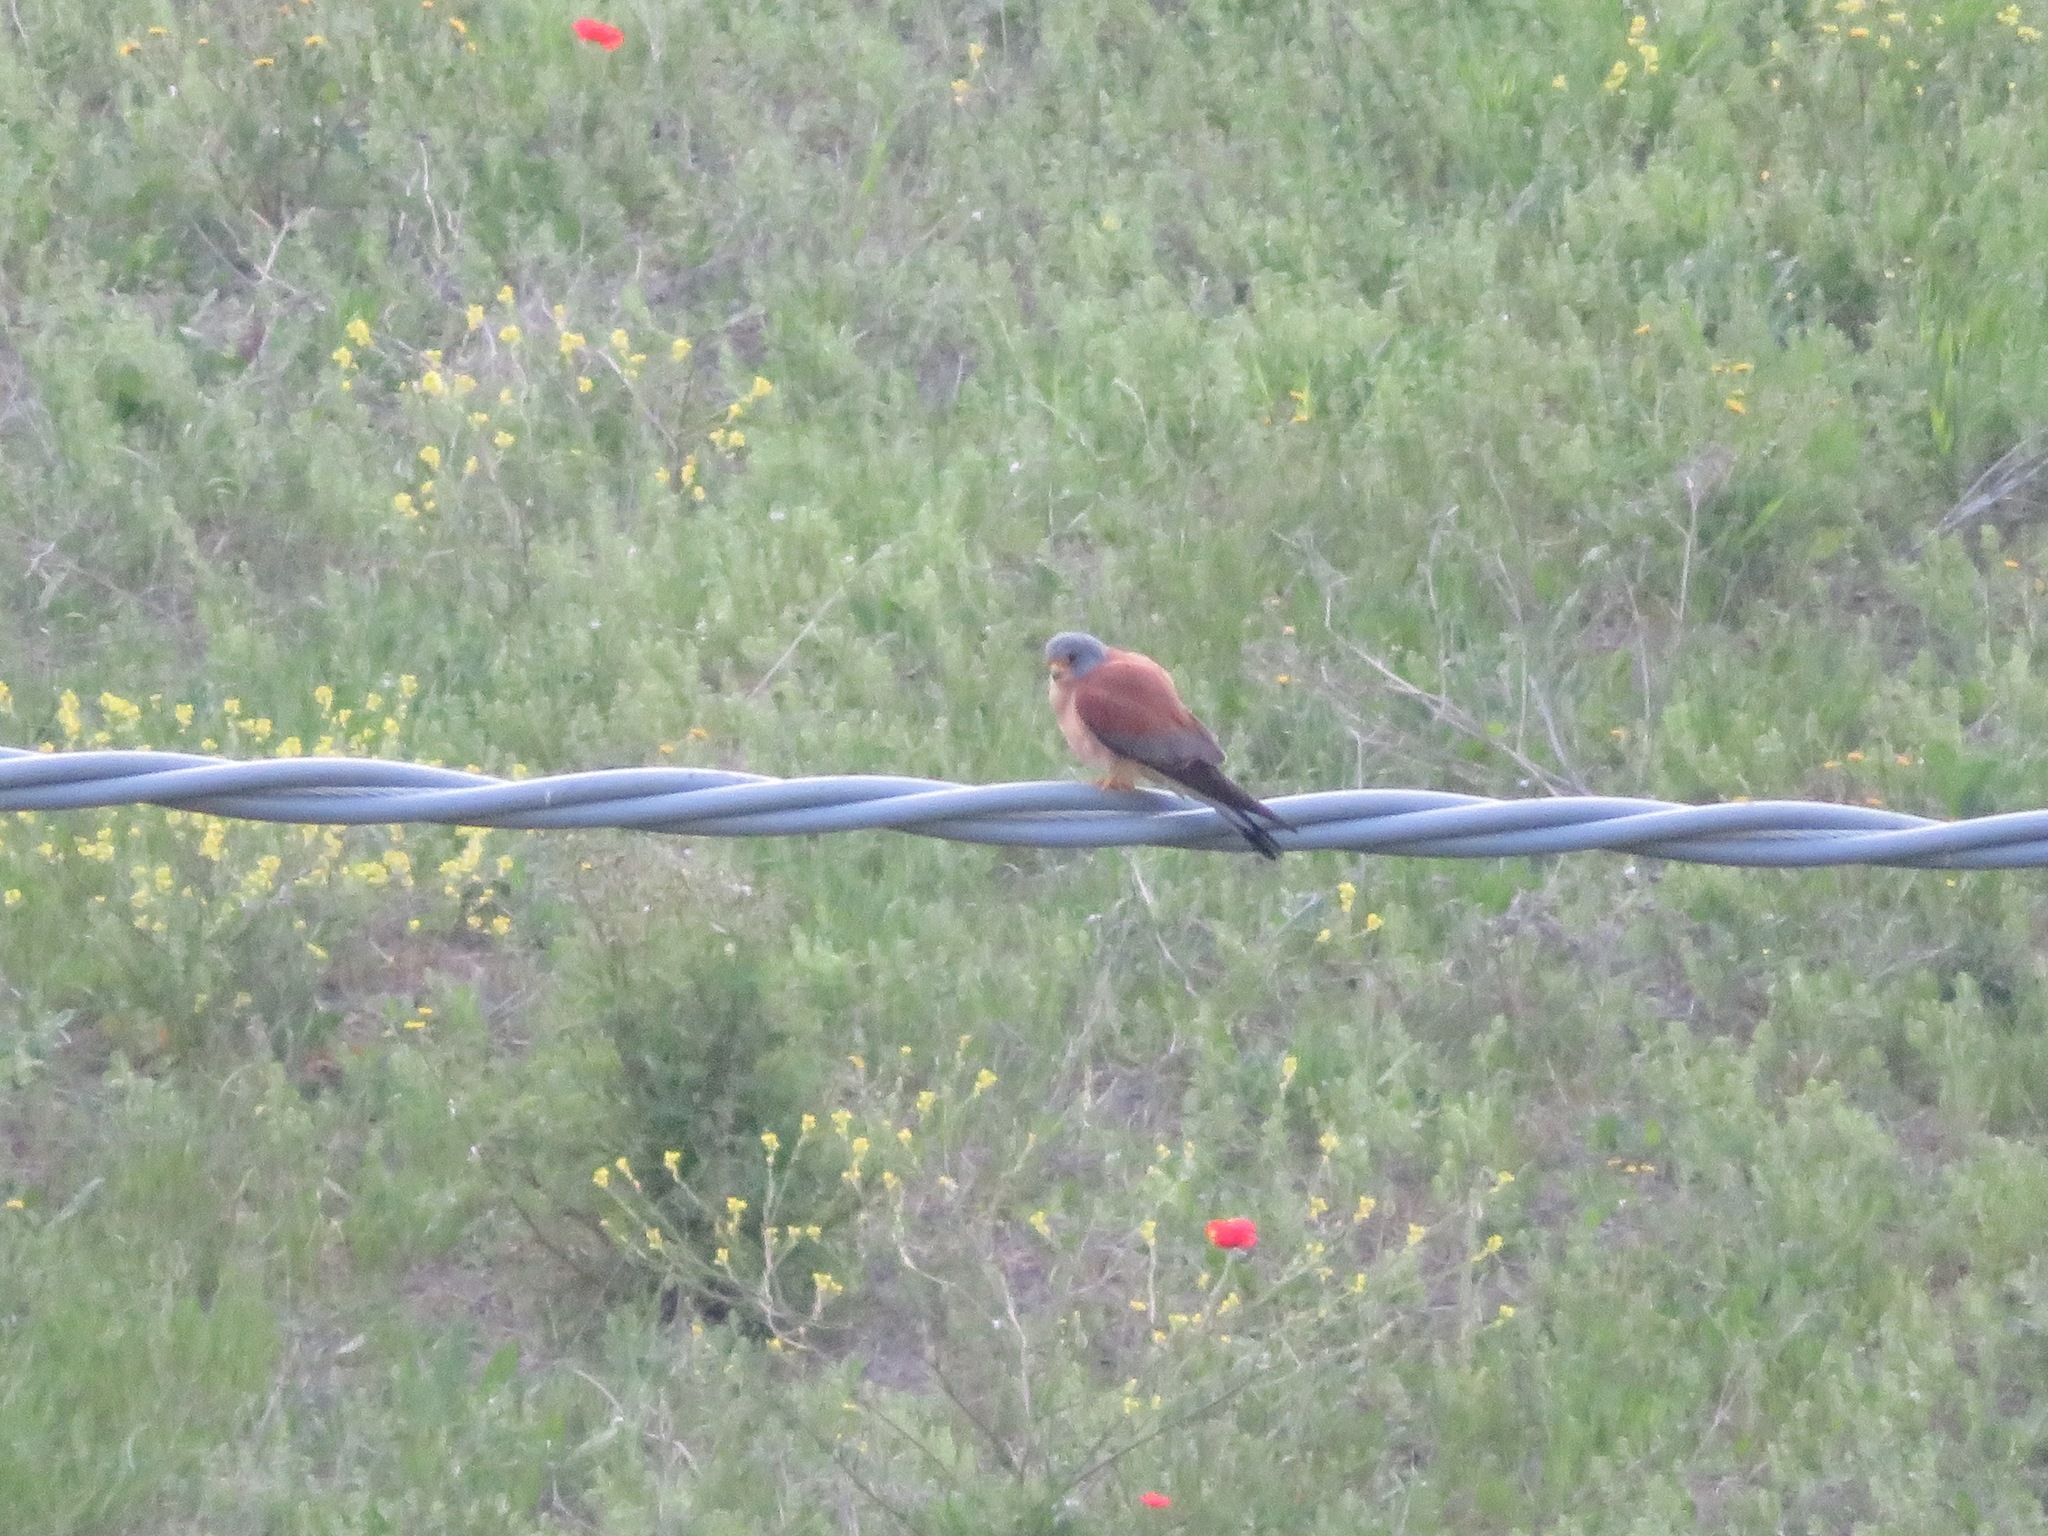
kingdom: Animalia
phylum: Chordata
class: Aves
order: Falconiformes
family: Falconidae
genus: Falco
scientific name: Falco naumanni
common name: Lesser kestrel
